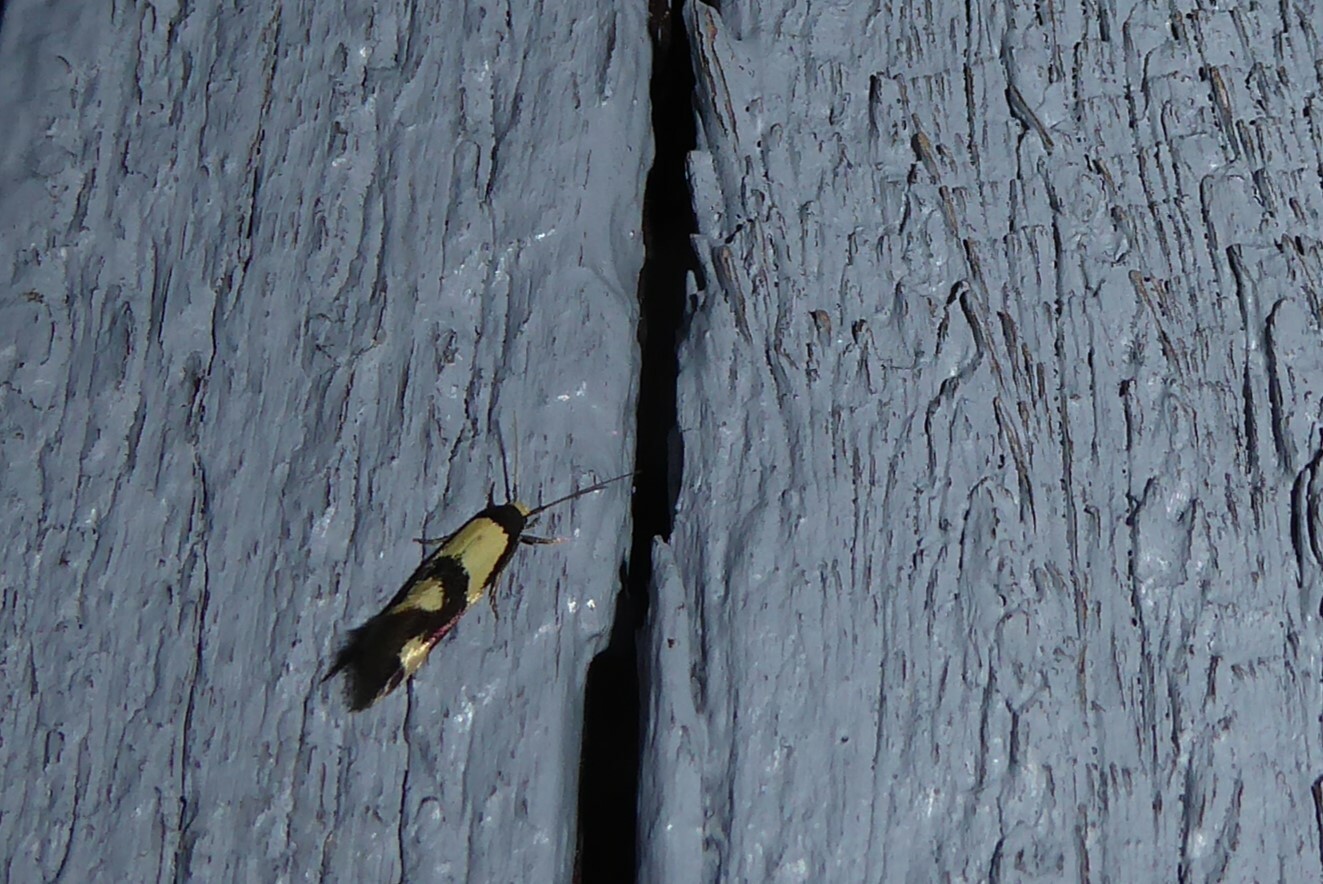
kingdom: Animalia
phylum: Arthropoda
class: Insecta
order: Lepidoptera
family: Tineidae
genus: Opogona
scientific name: Opogona comptella
